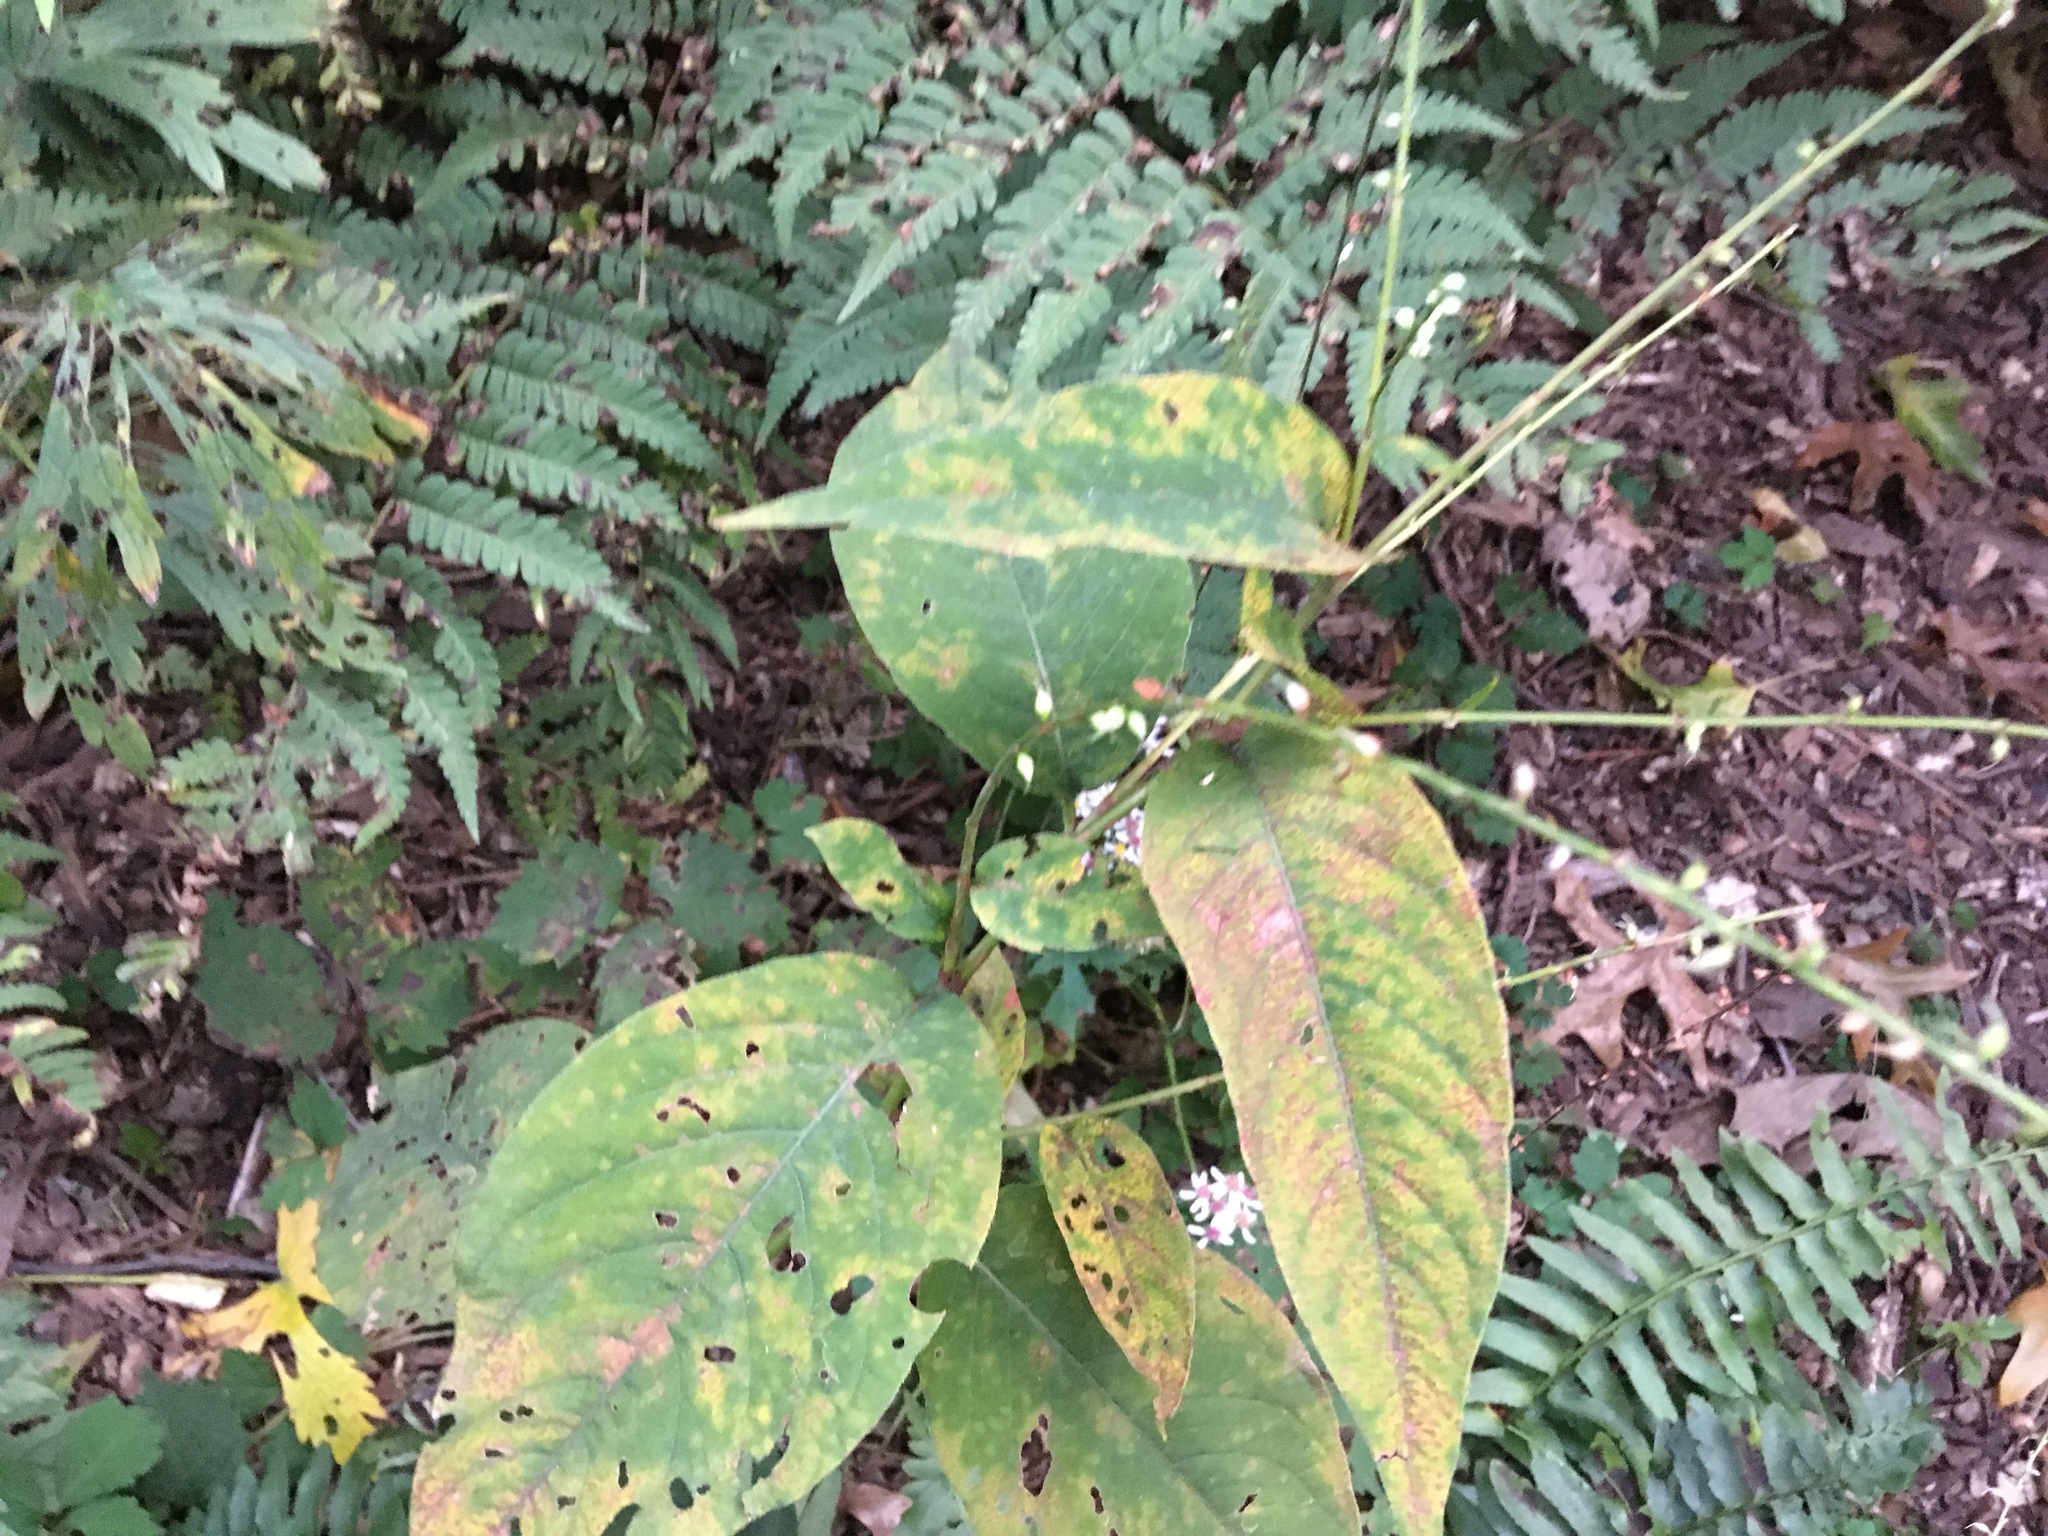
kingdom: Plantae
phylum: Tracheophyta
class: Magnoliopsida
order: Caryophyllales
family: Polygonaceae
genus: Persicaria
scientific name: Persicaria virginiana
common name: Jumpseed
